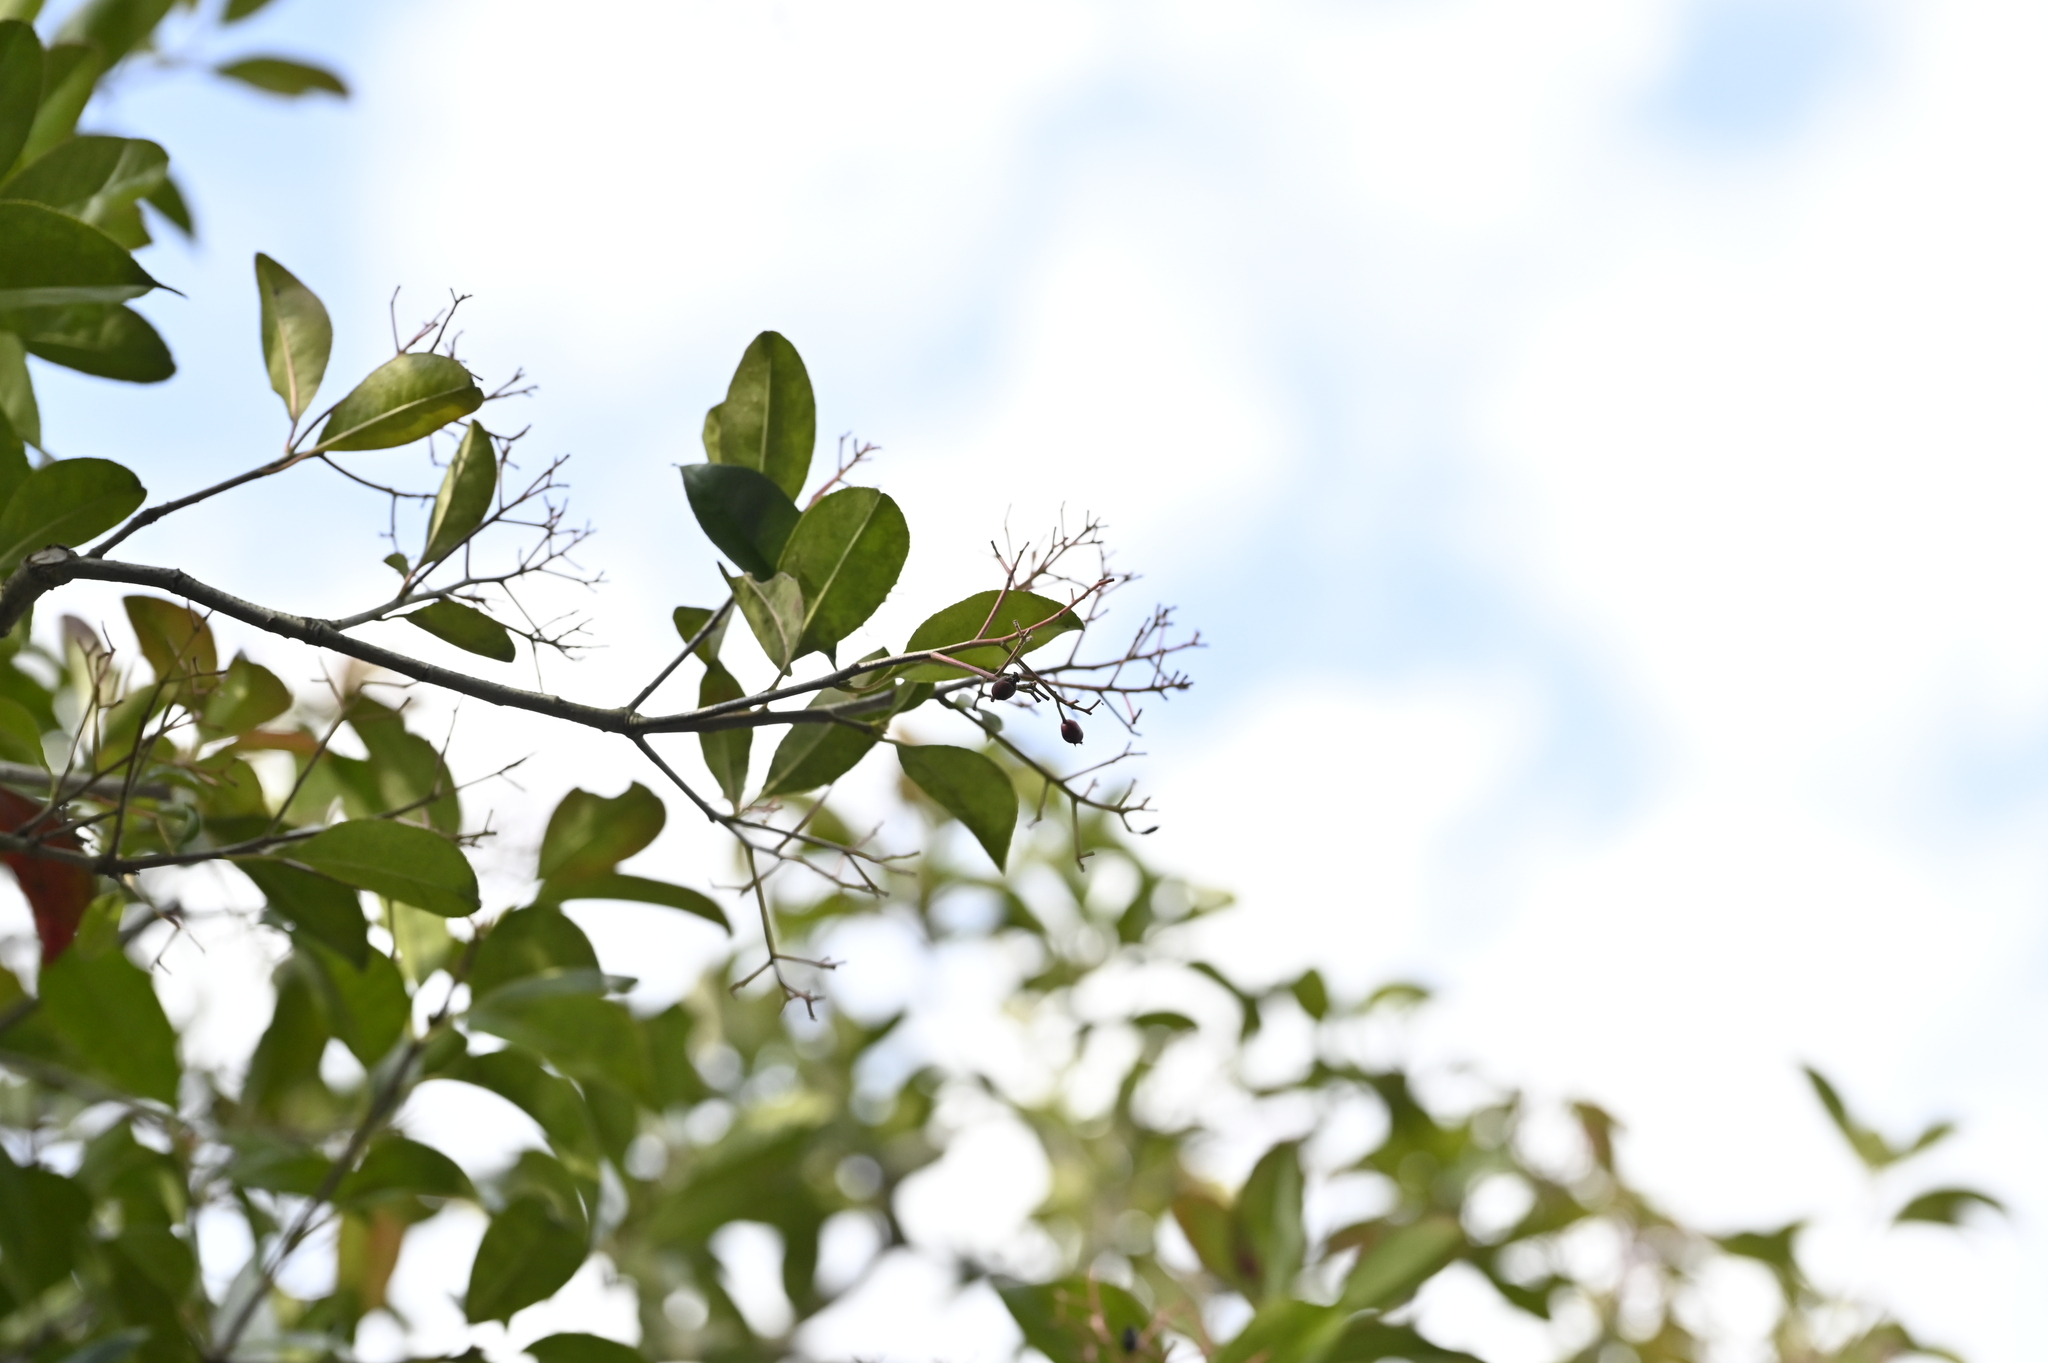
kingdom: Plantae
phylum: Tracheophyta
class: Magnoliopsida
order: Rosales
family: Rosaceae
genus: Photinia
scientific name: Photinia glabra
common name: Japanese photinia
